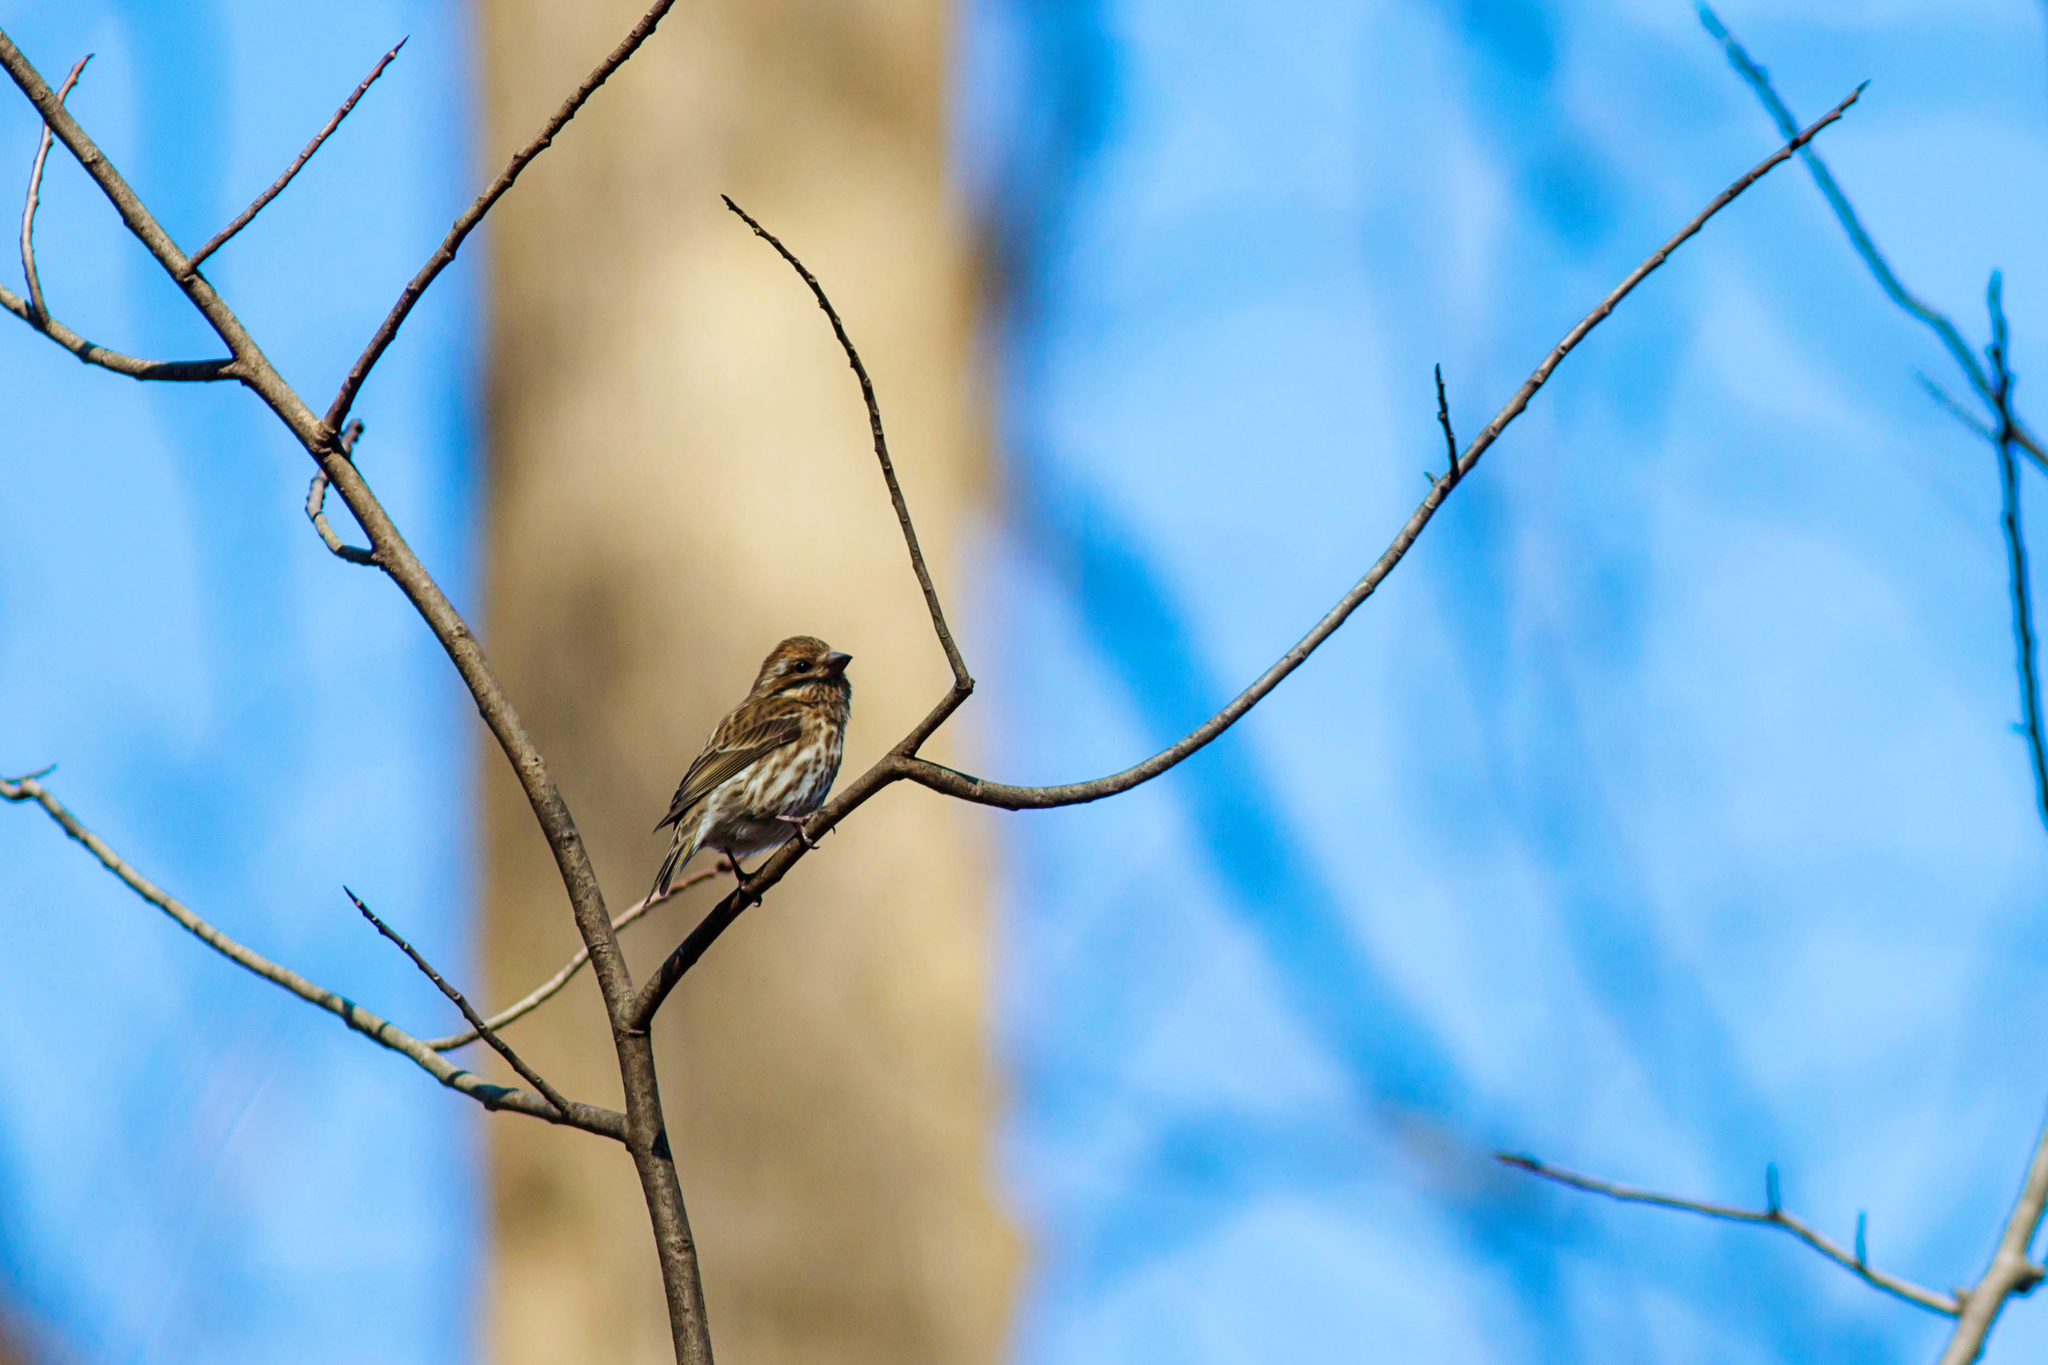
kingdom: Animalia
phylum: Chordata
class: Aves
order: Passeriformes
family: Fringillidae
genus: Haemorhous
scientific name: Haemorhous purpureus
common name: Purple finch
